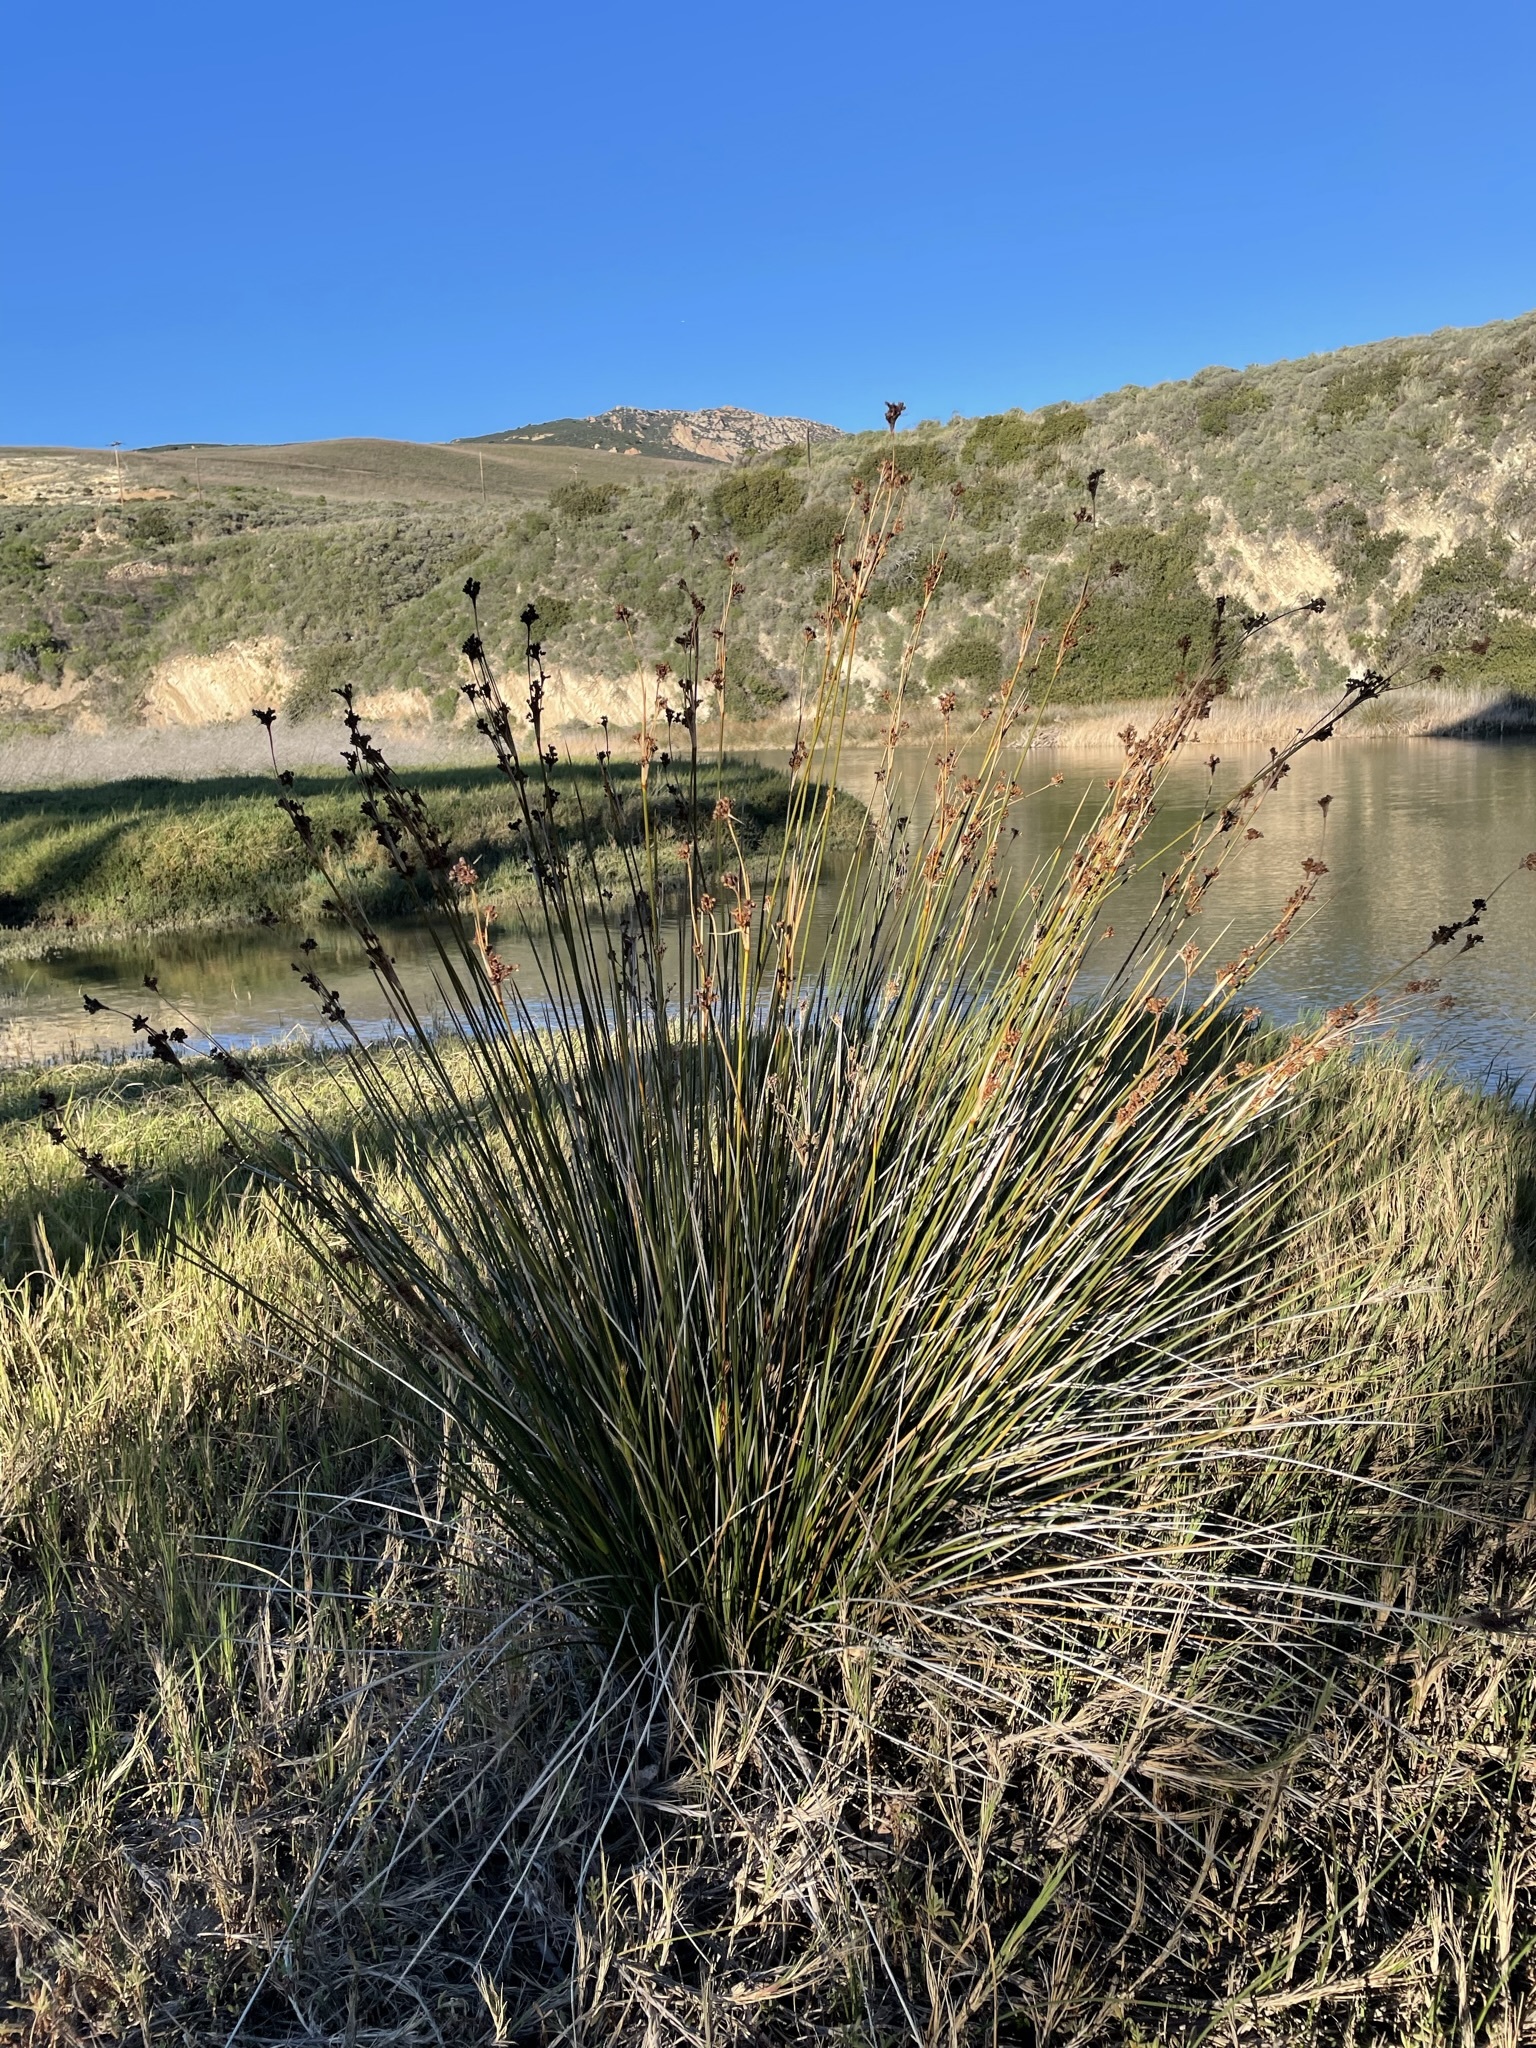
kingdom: Plantae
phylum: Tracheophyta
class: Liliopsida
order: Poales
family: Juncaceae
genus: Juncus
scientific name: Juncus acutus
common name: Sharp rush
